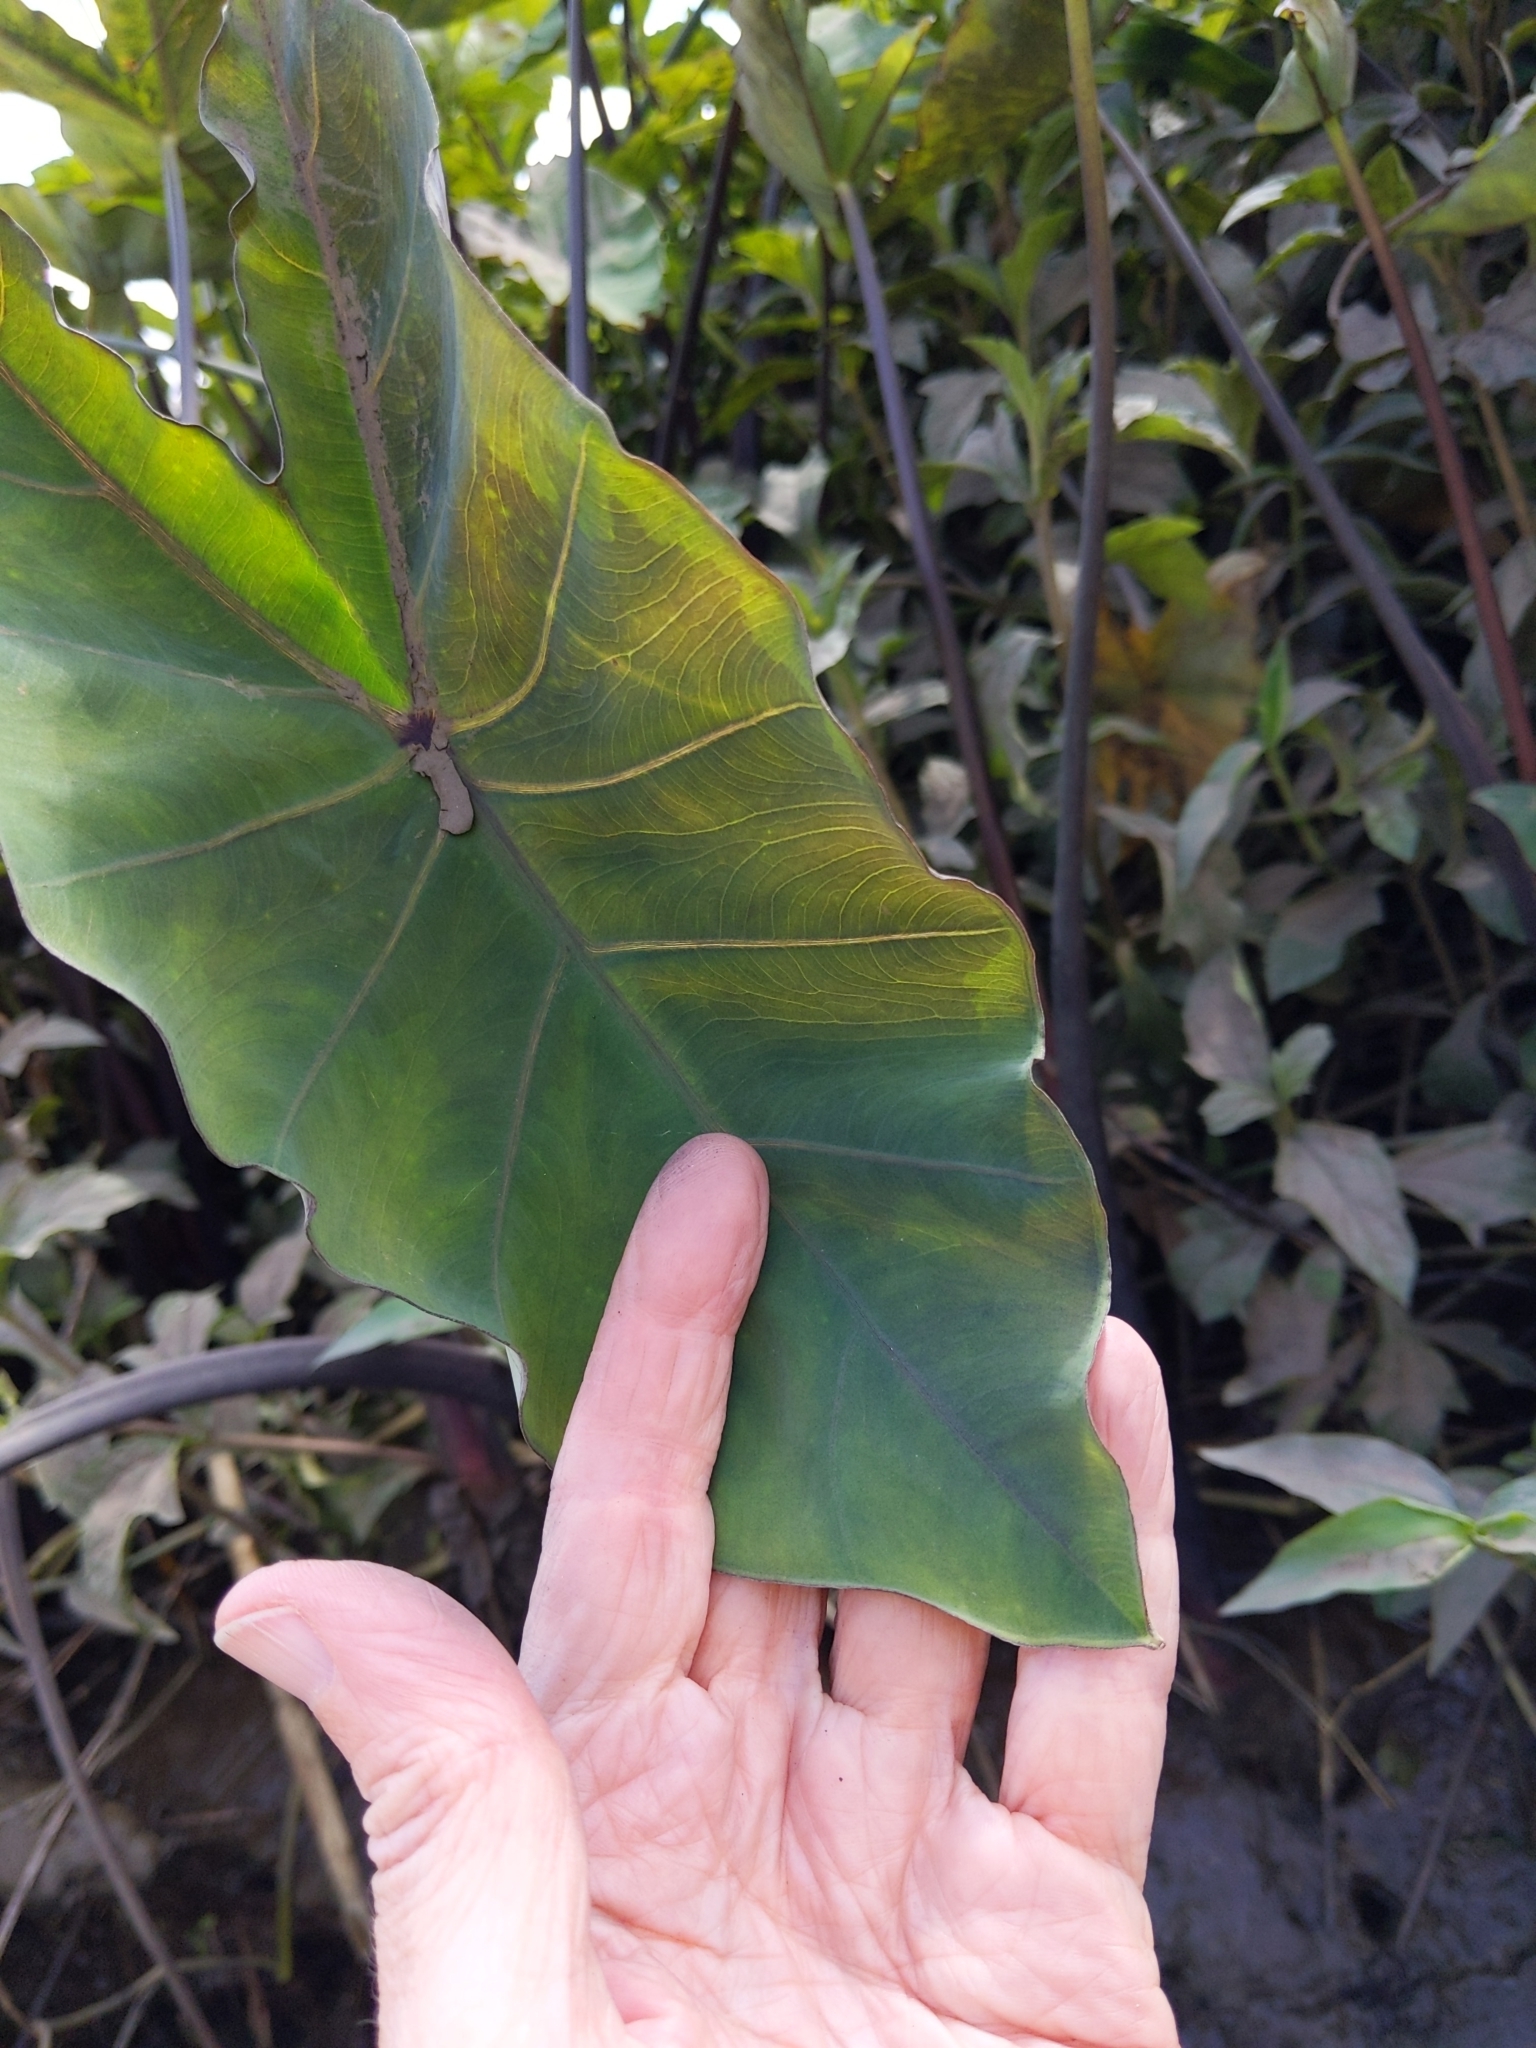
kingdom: Plantae
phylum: Tracheophyta
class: Liliopsida
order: Alismatales
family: Araceae
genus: Colocasia
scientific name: Colocasia esculenta
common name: Taro
